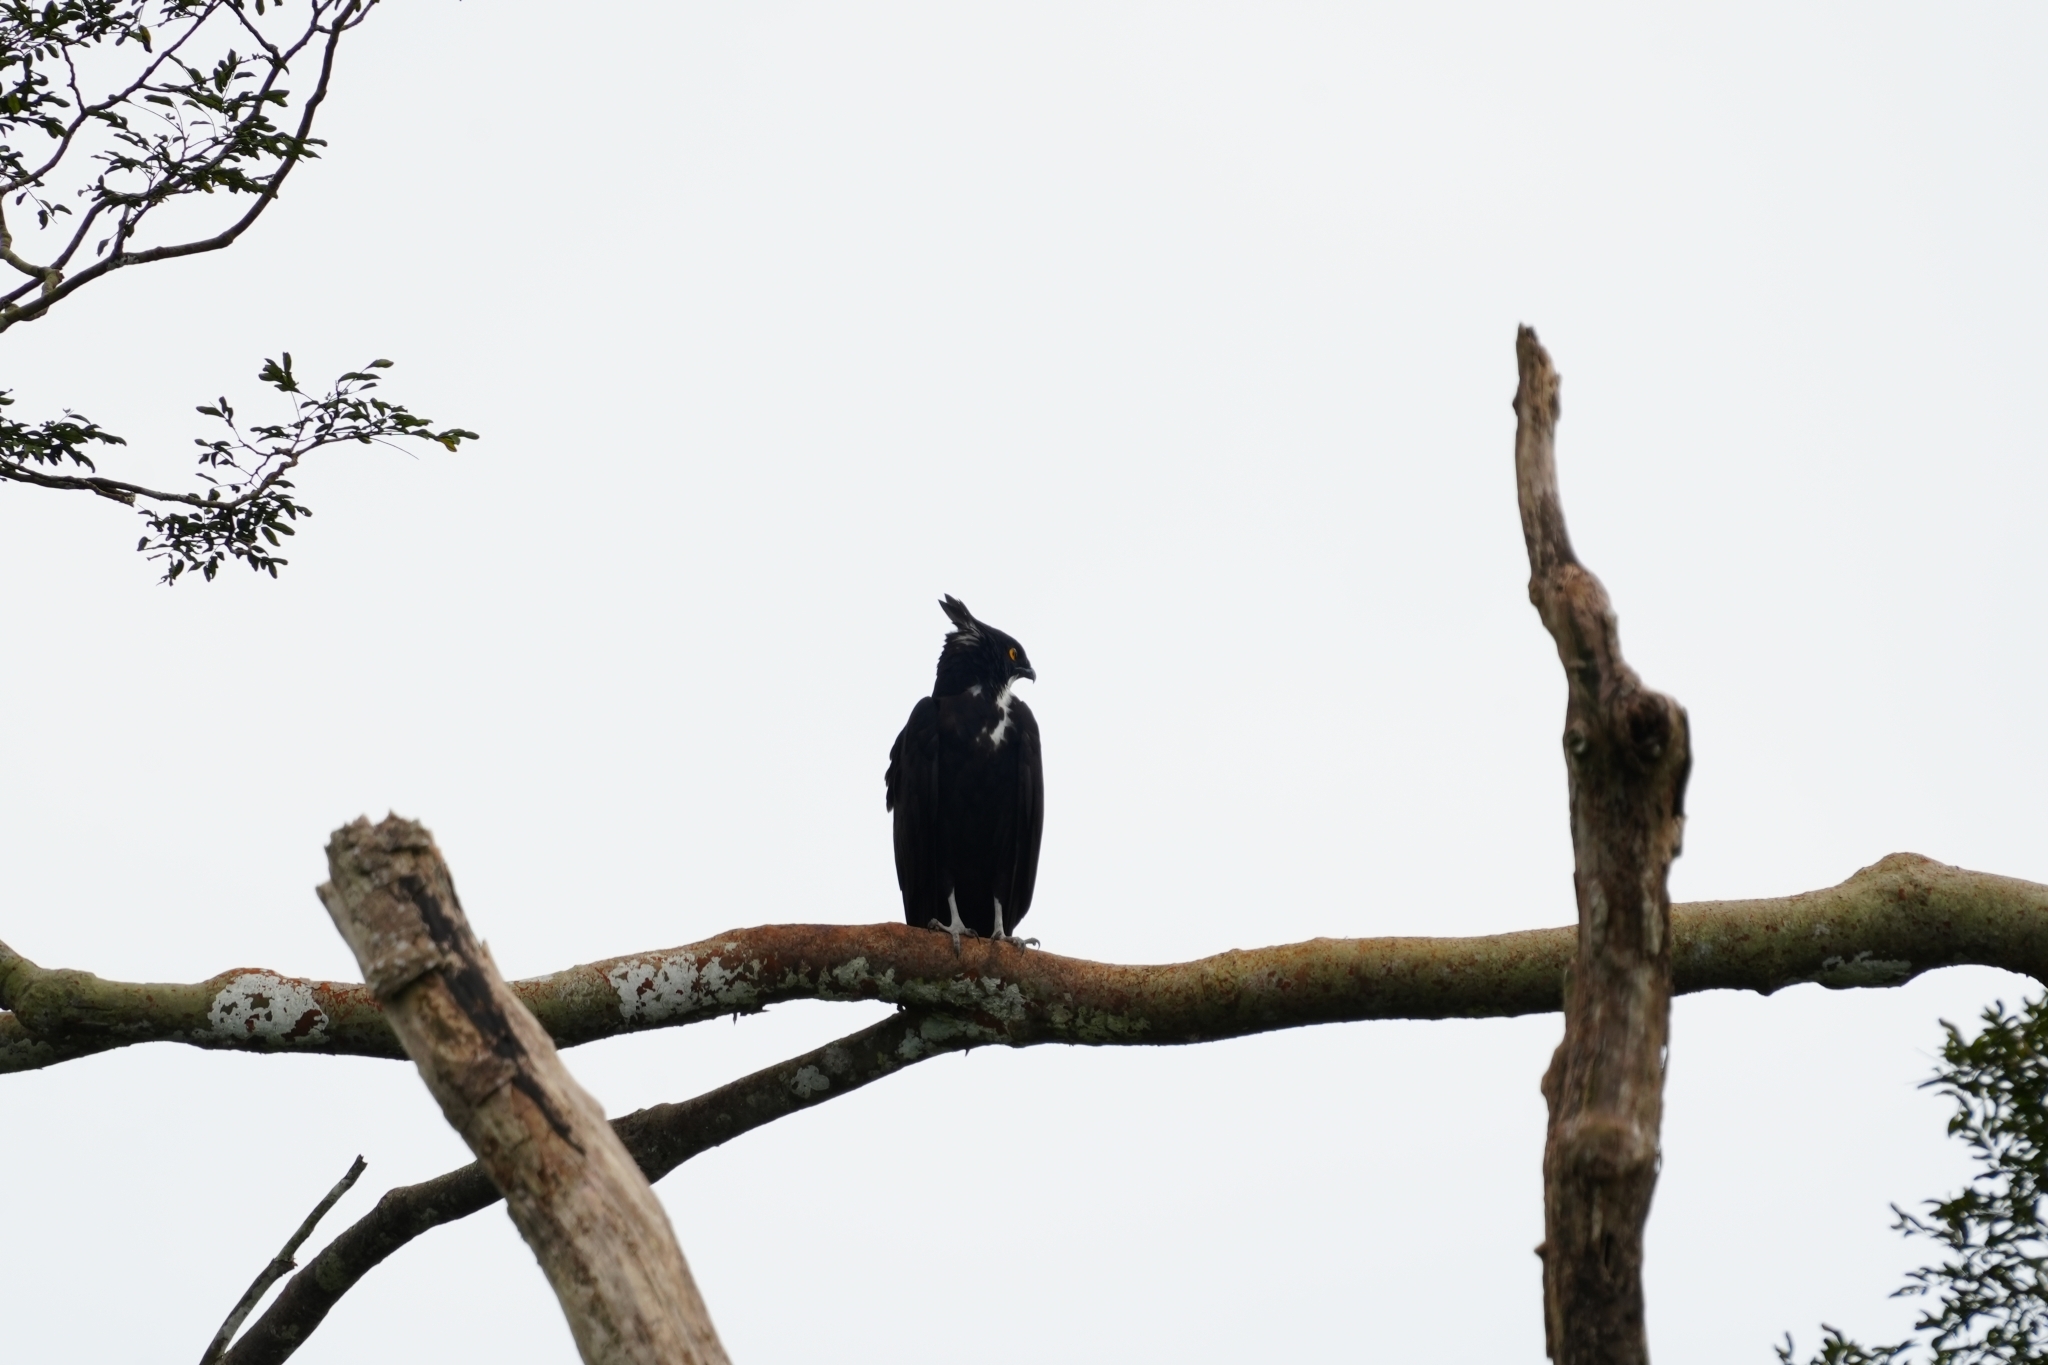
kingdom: Animalia
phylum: Chordata
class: Aves
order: Accipitriformes
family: Accipitridae
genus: Macheiramphus
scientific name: Macheiramphus alcinus
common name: Bat hawk
